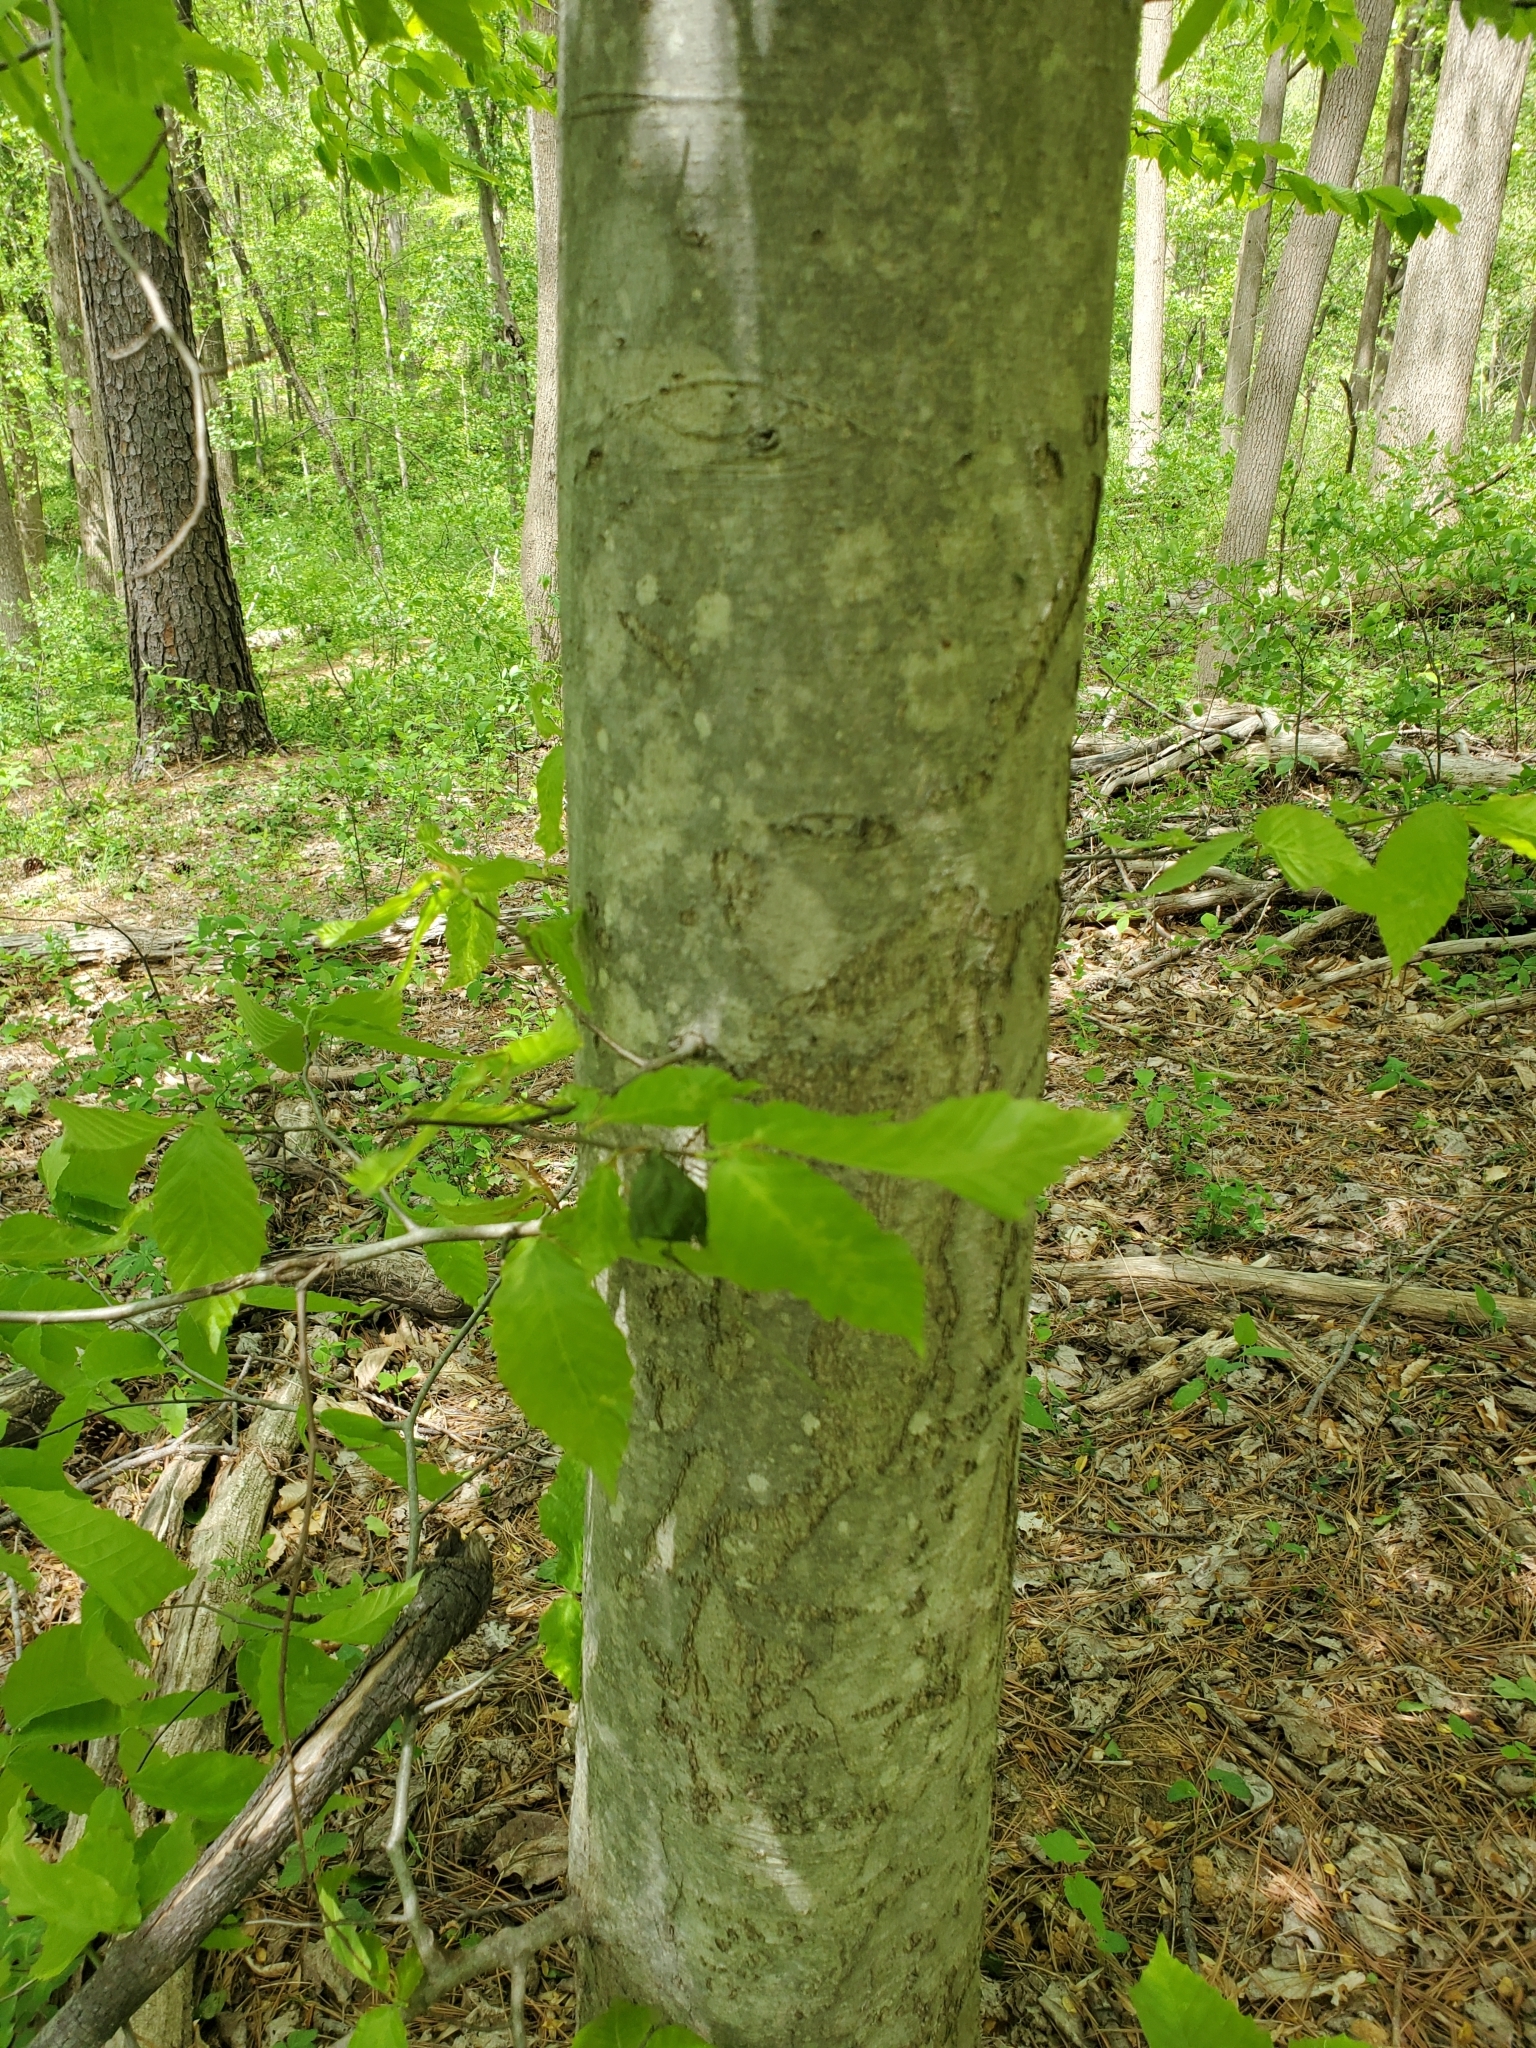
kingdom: Plantae
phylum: Tracheophyta
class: Magnoliopsida
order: Fagales
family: Fagaceae
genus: Fagus
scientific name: Fagus grandifolia
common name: American beech
